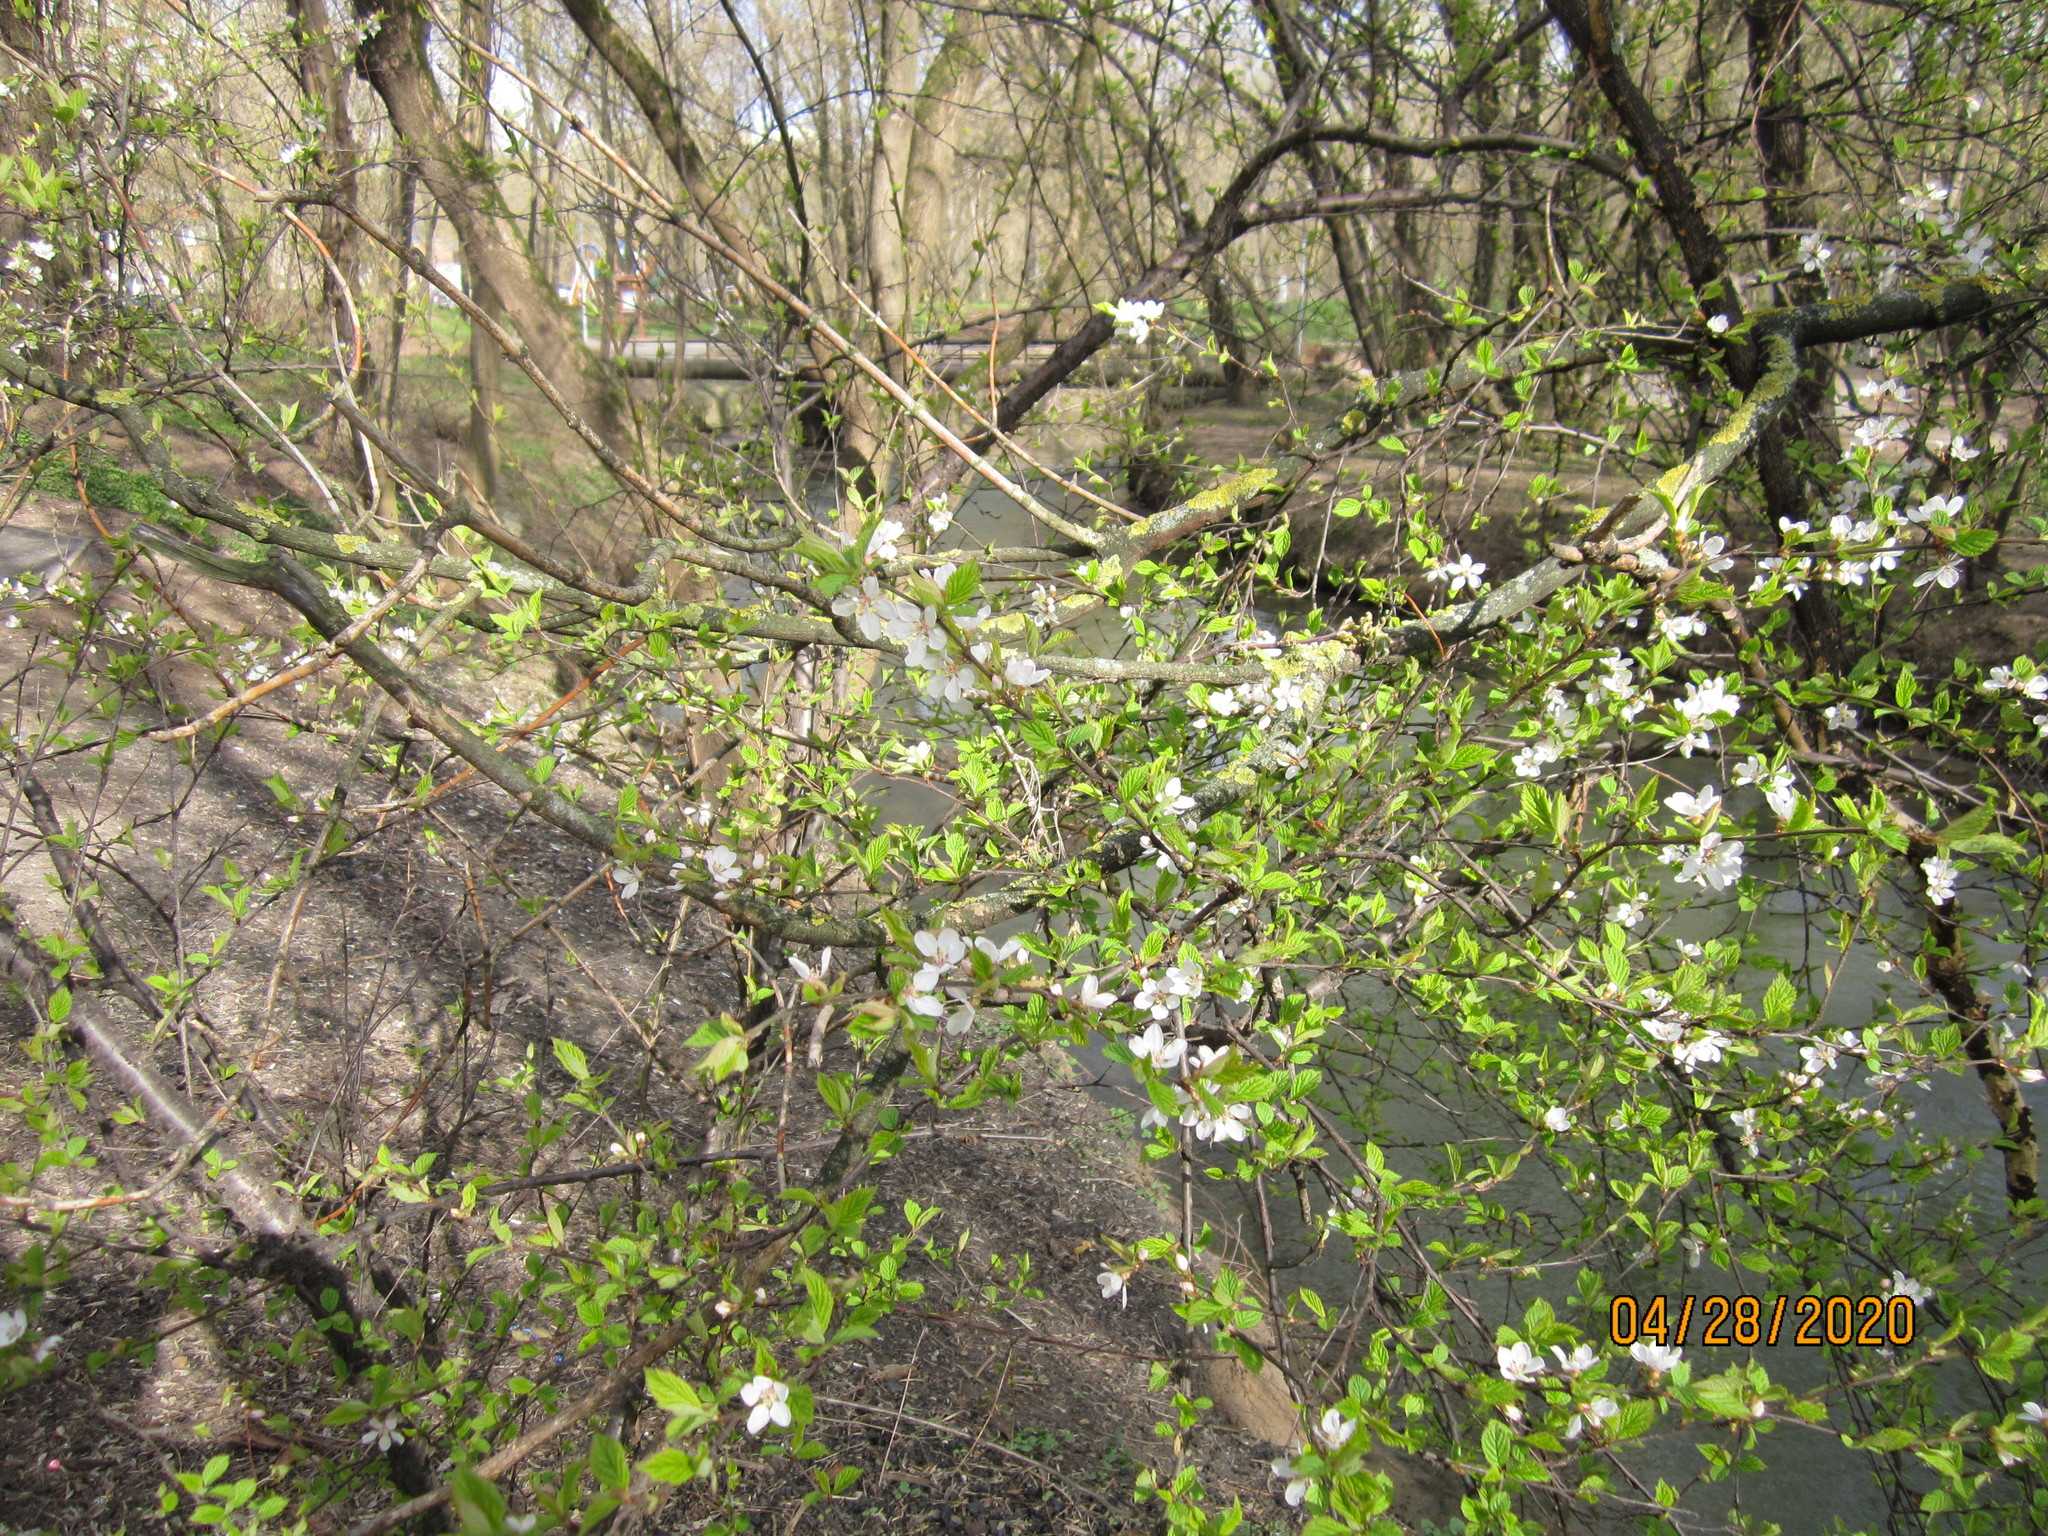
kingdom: Plantae
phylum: Tracheophyta
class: Magnoliopsida
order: Rosales
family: Rosaceae
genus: Prunus
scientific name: Prunus tomentosa
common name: Nanking cherry
